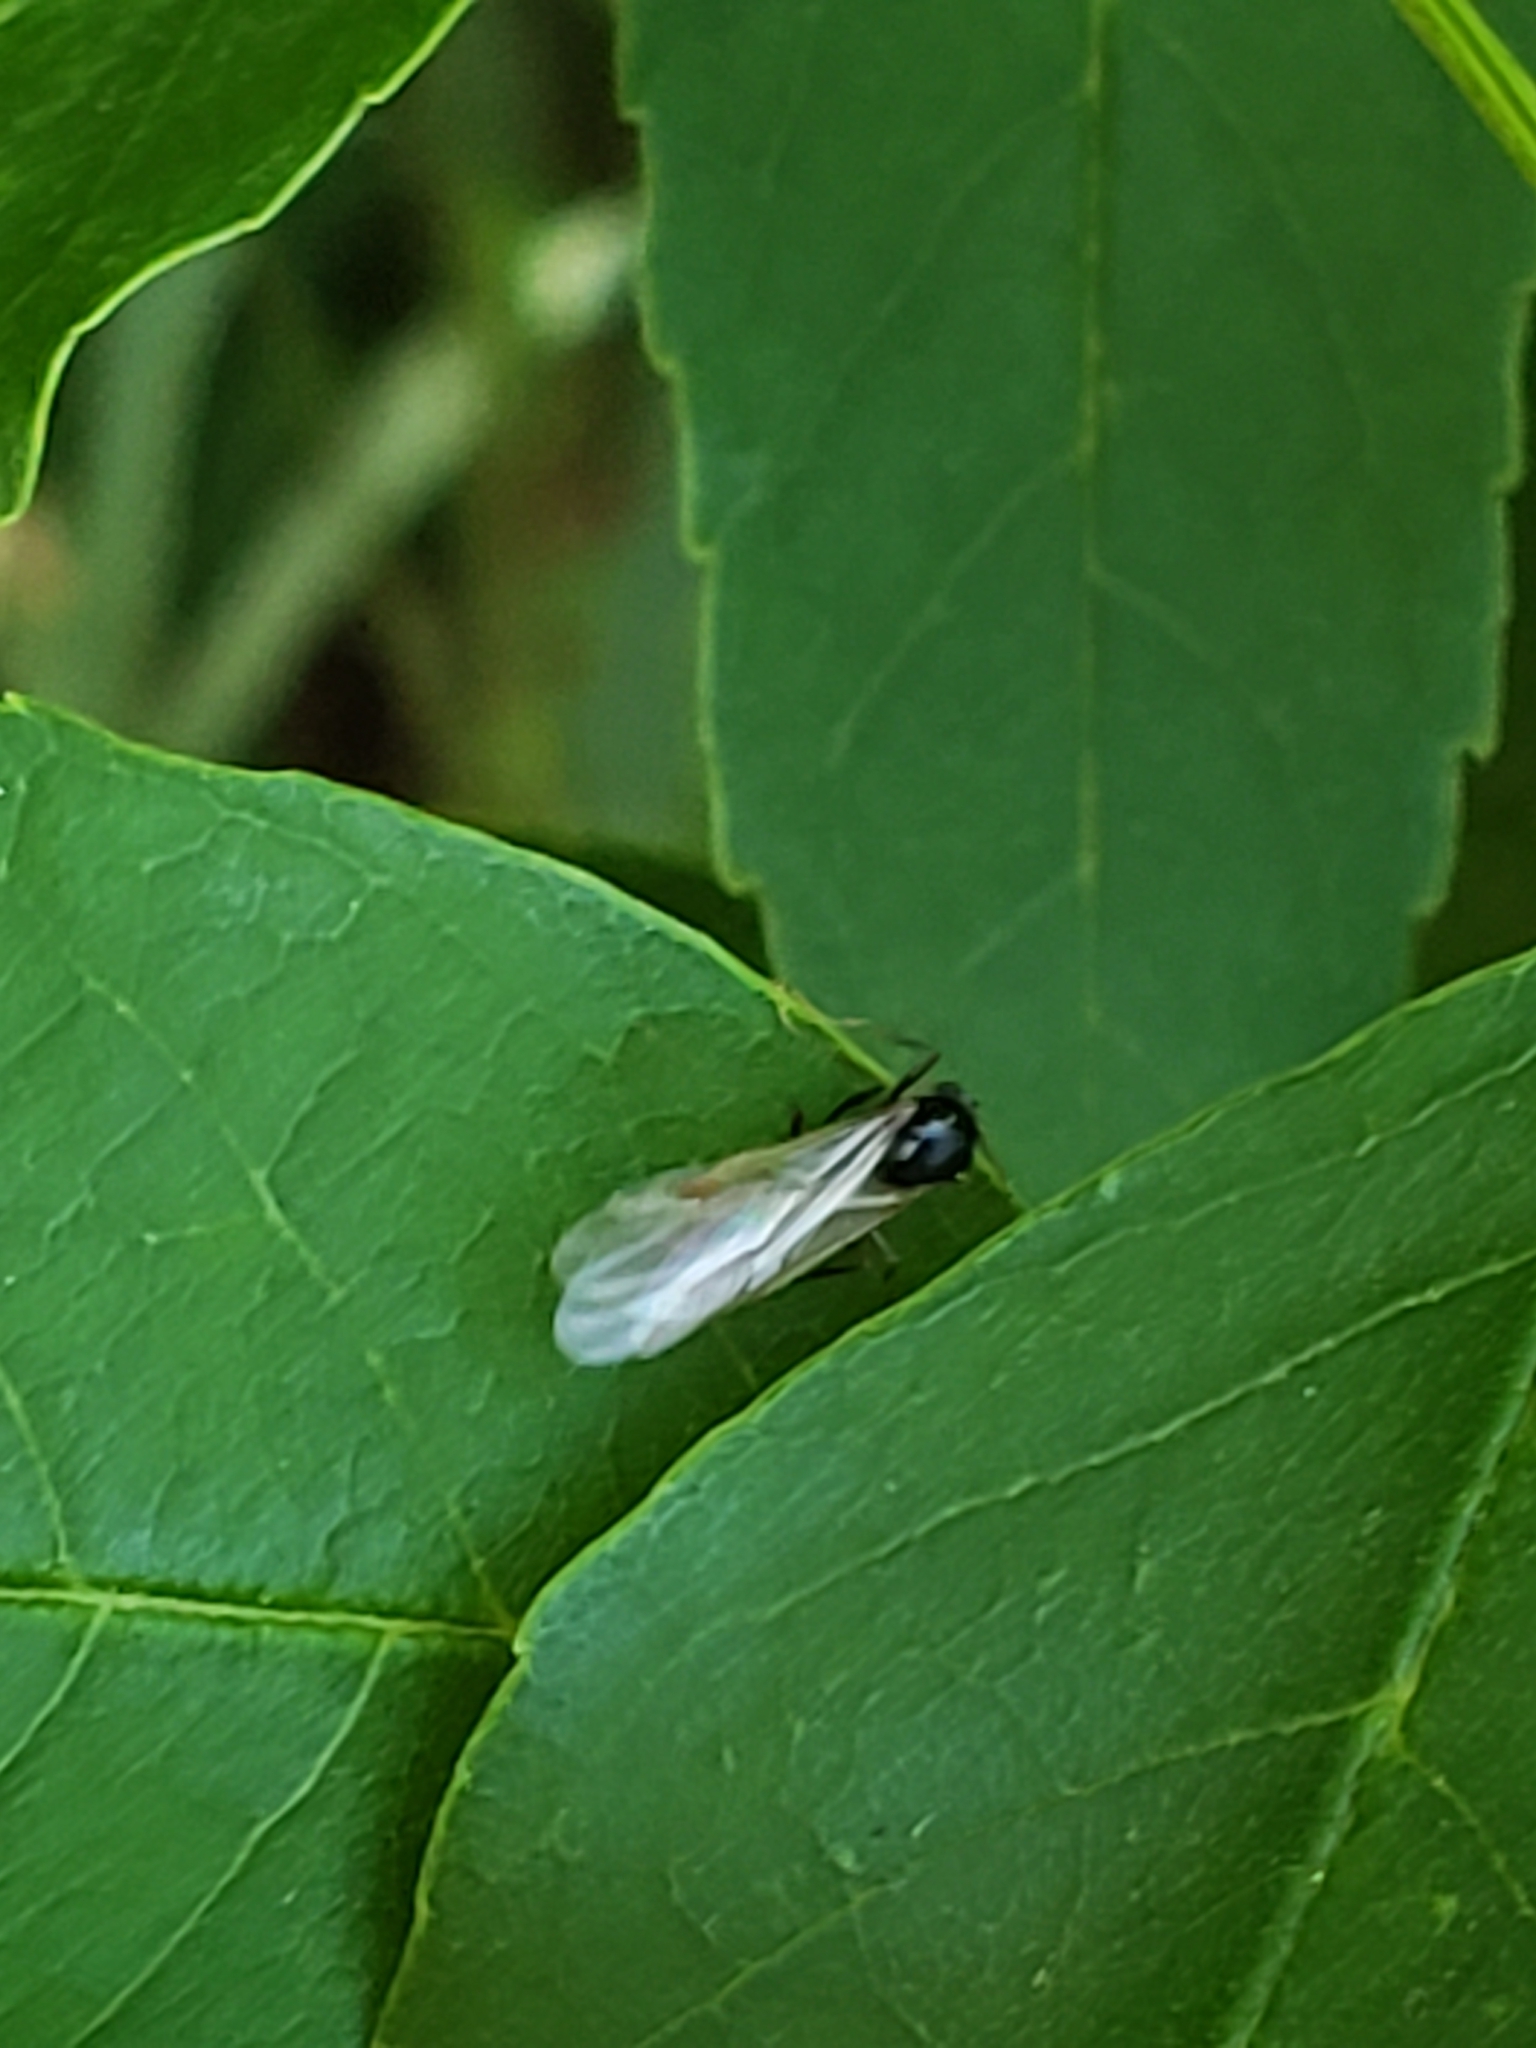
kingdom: Animalia
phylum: Arthropoda
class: Insecta
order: Hymenoptera
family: Formicidae
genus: Tetramorium
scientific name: Tetramorium immigrans
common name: Pavement ant
